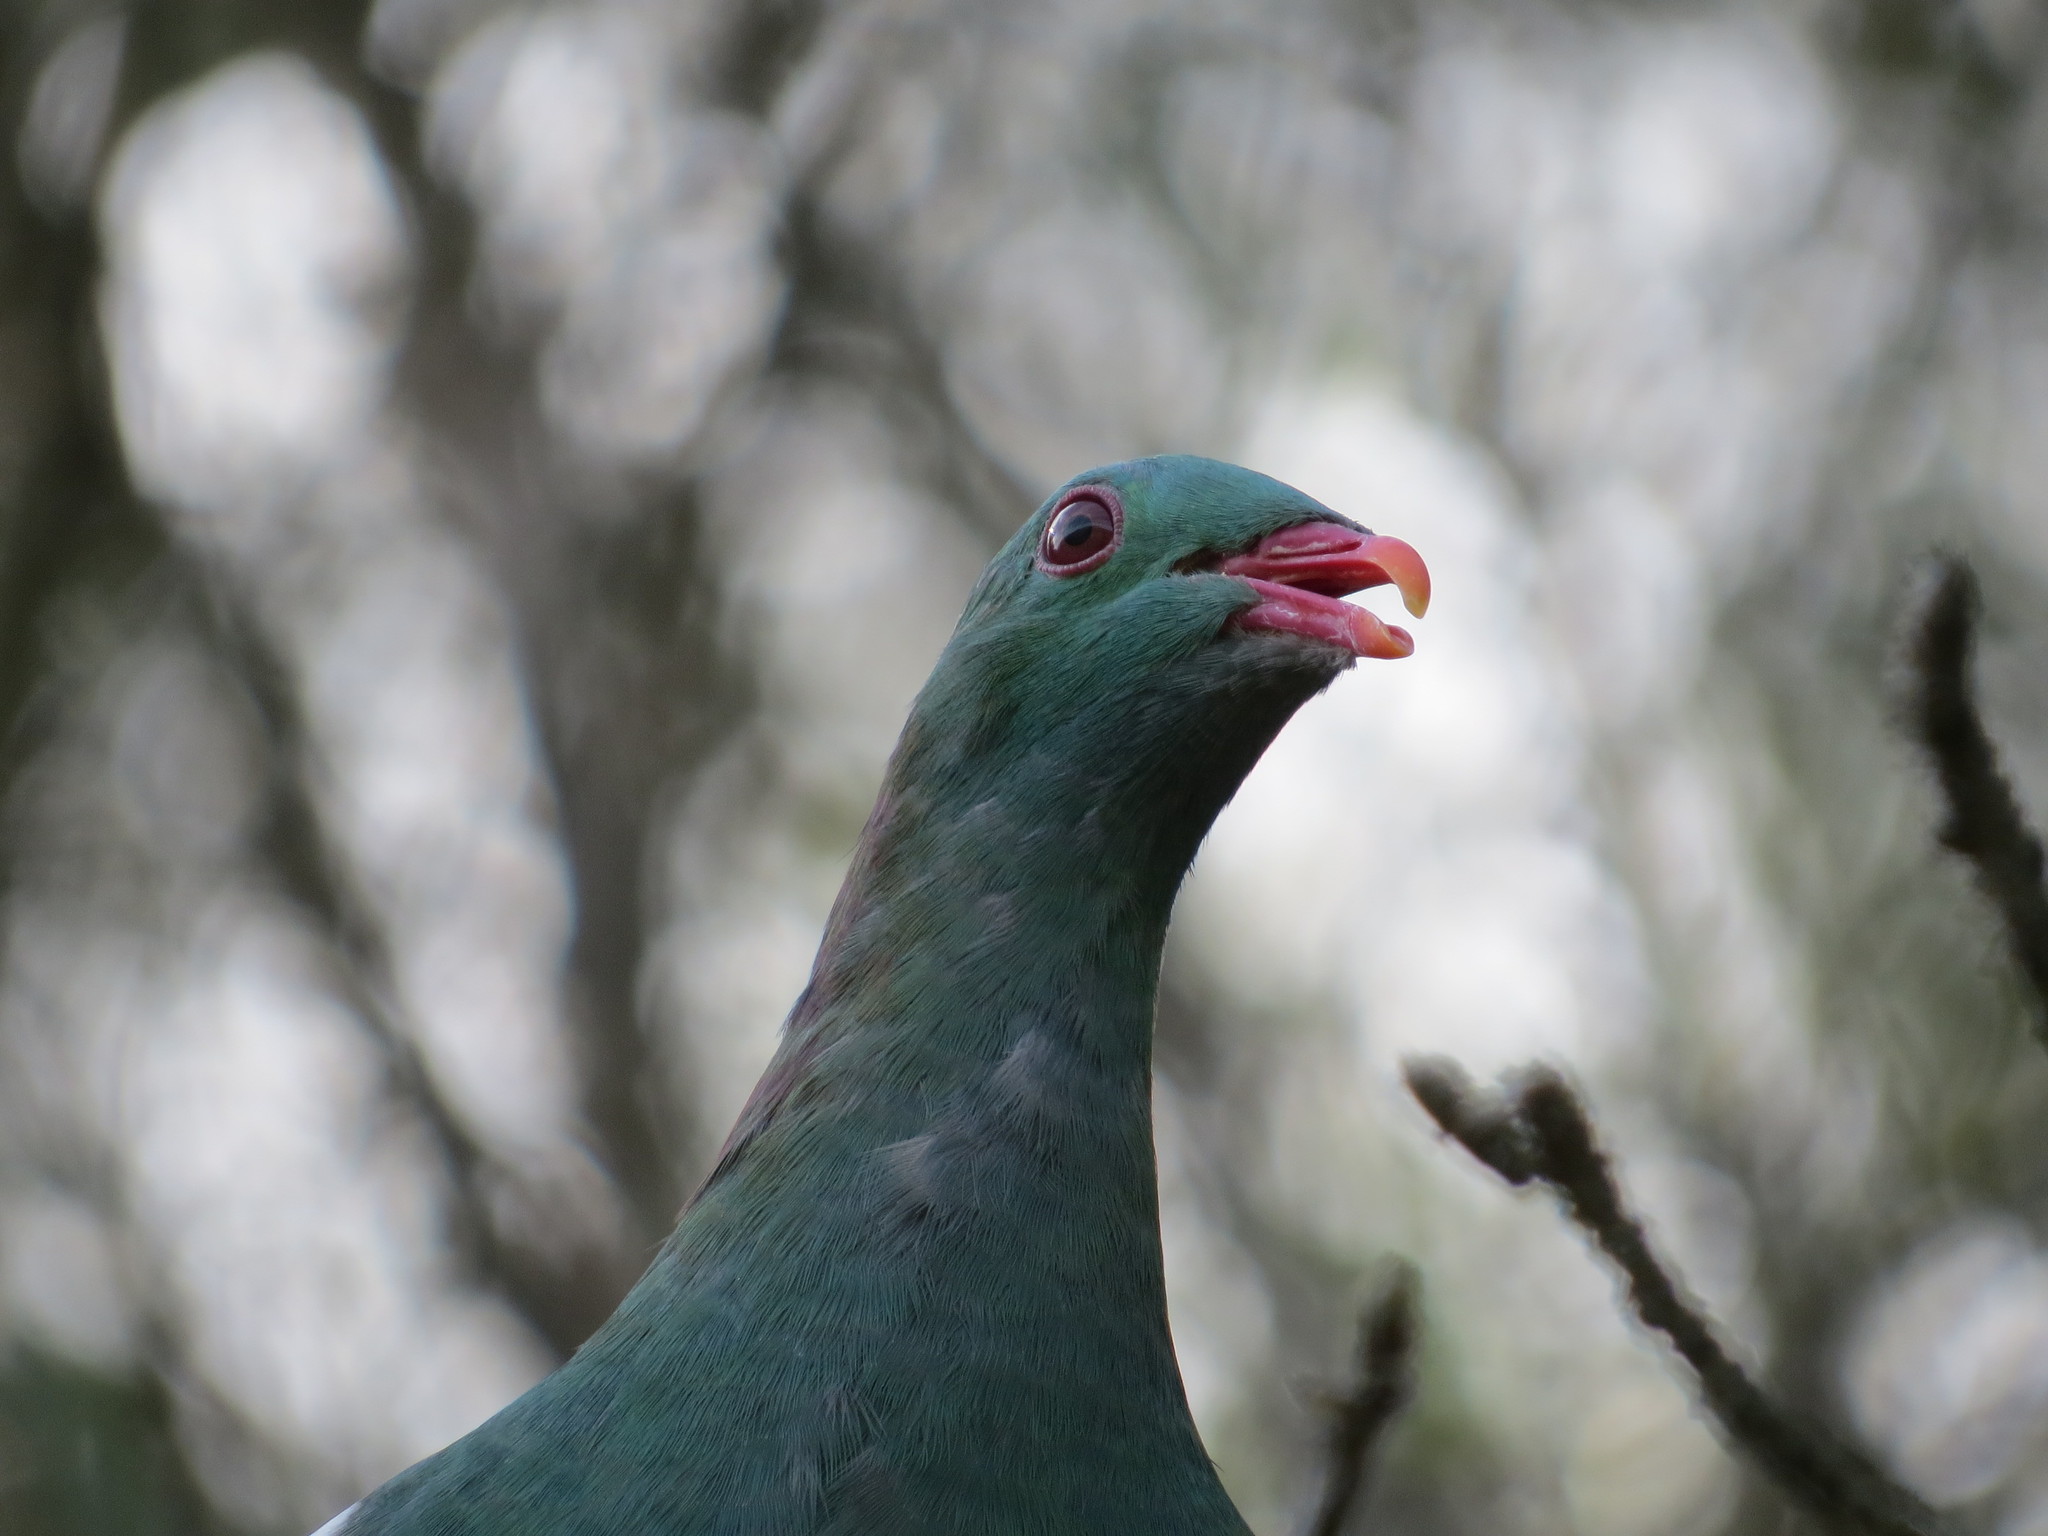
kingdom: Animalia
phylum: Chordata
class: Aves
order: Columbiformes
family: Columbidae
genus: Hemiphaga
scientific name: Hemiphaga novaeseelandiae
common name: New zealand pigeon
